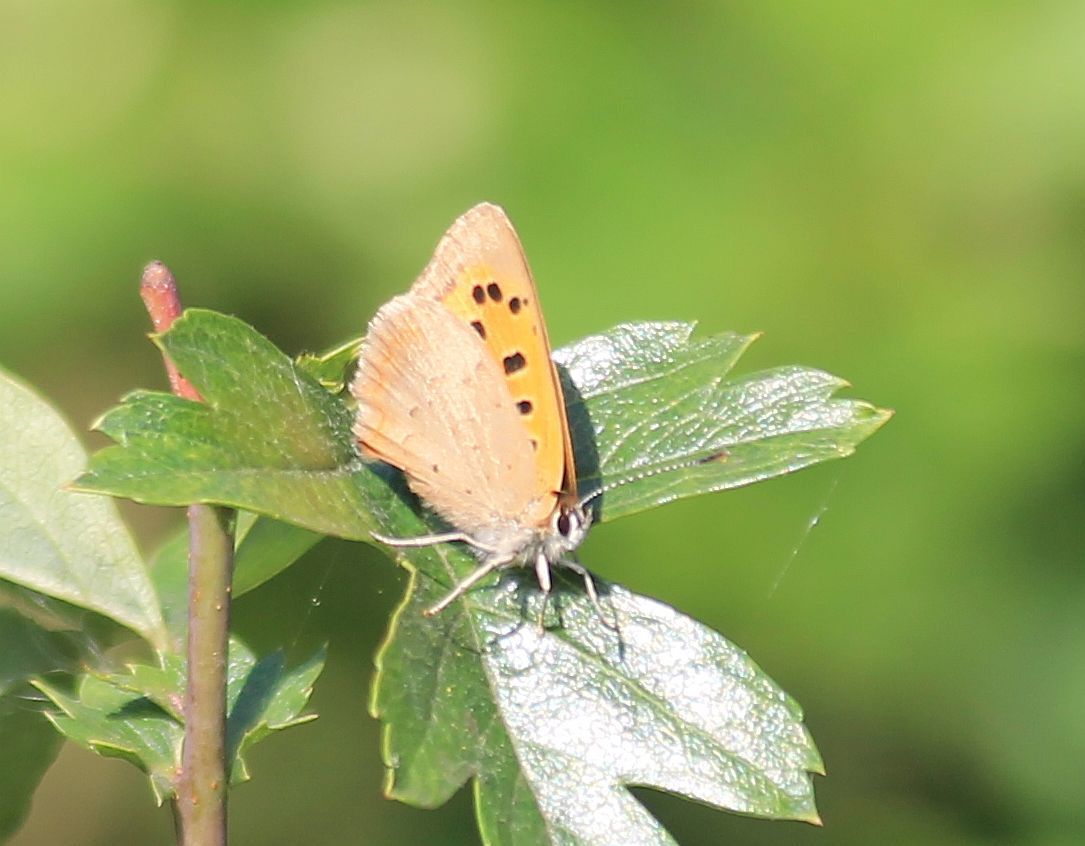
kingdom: Animalia
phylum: Arthropoda
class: Insecta
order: Lepidoptera
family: Lycaenidae
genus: Lycaena
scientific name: Lycaena phlaeas
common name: Small copper
